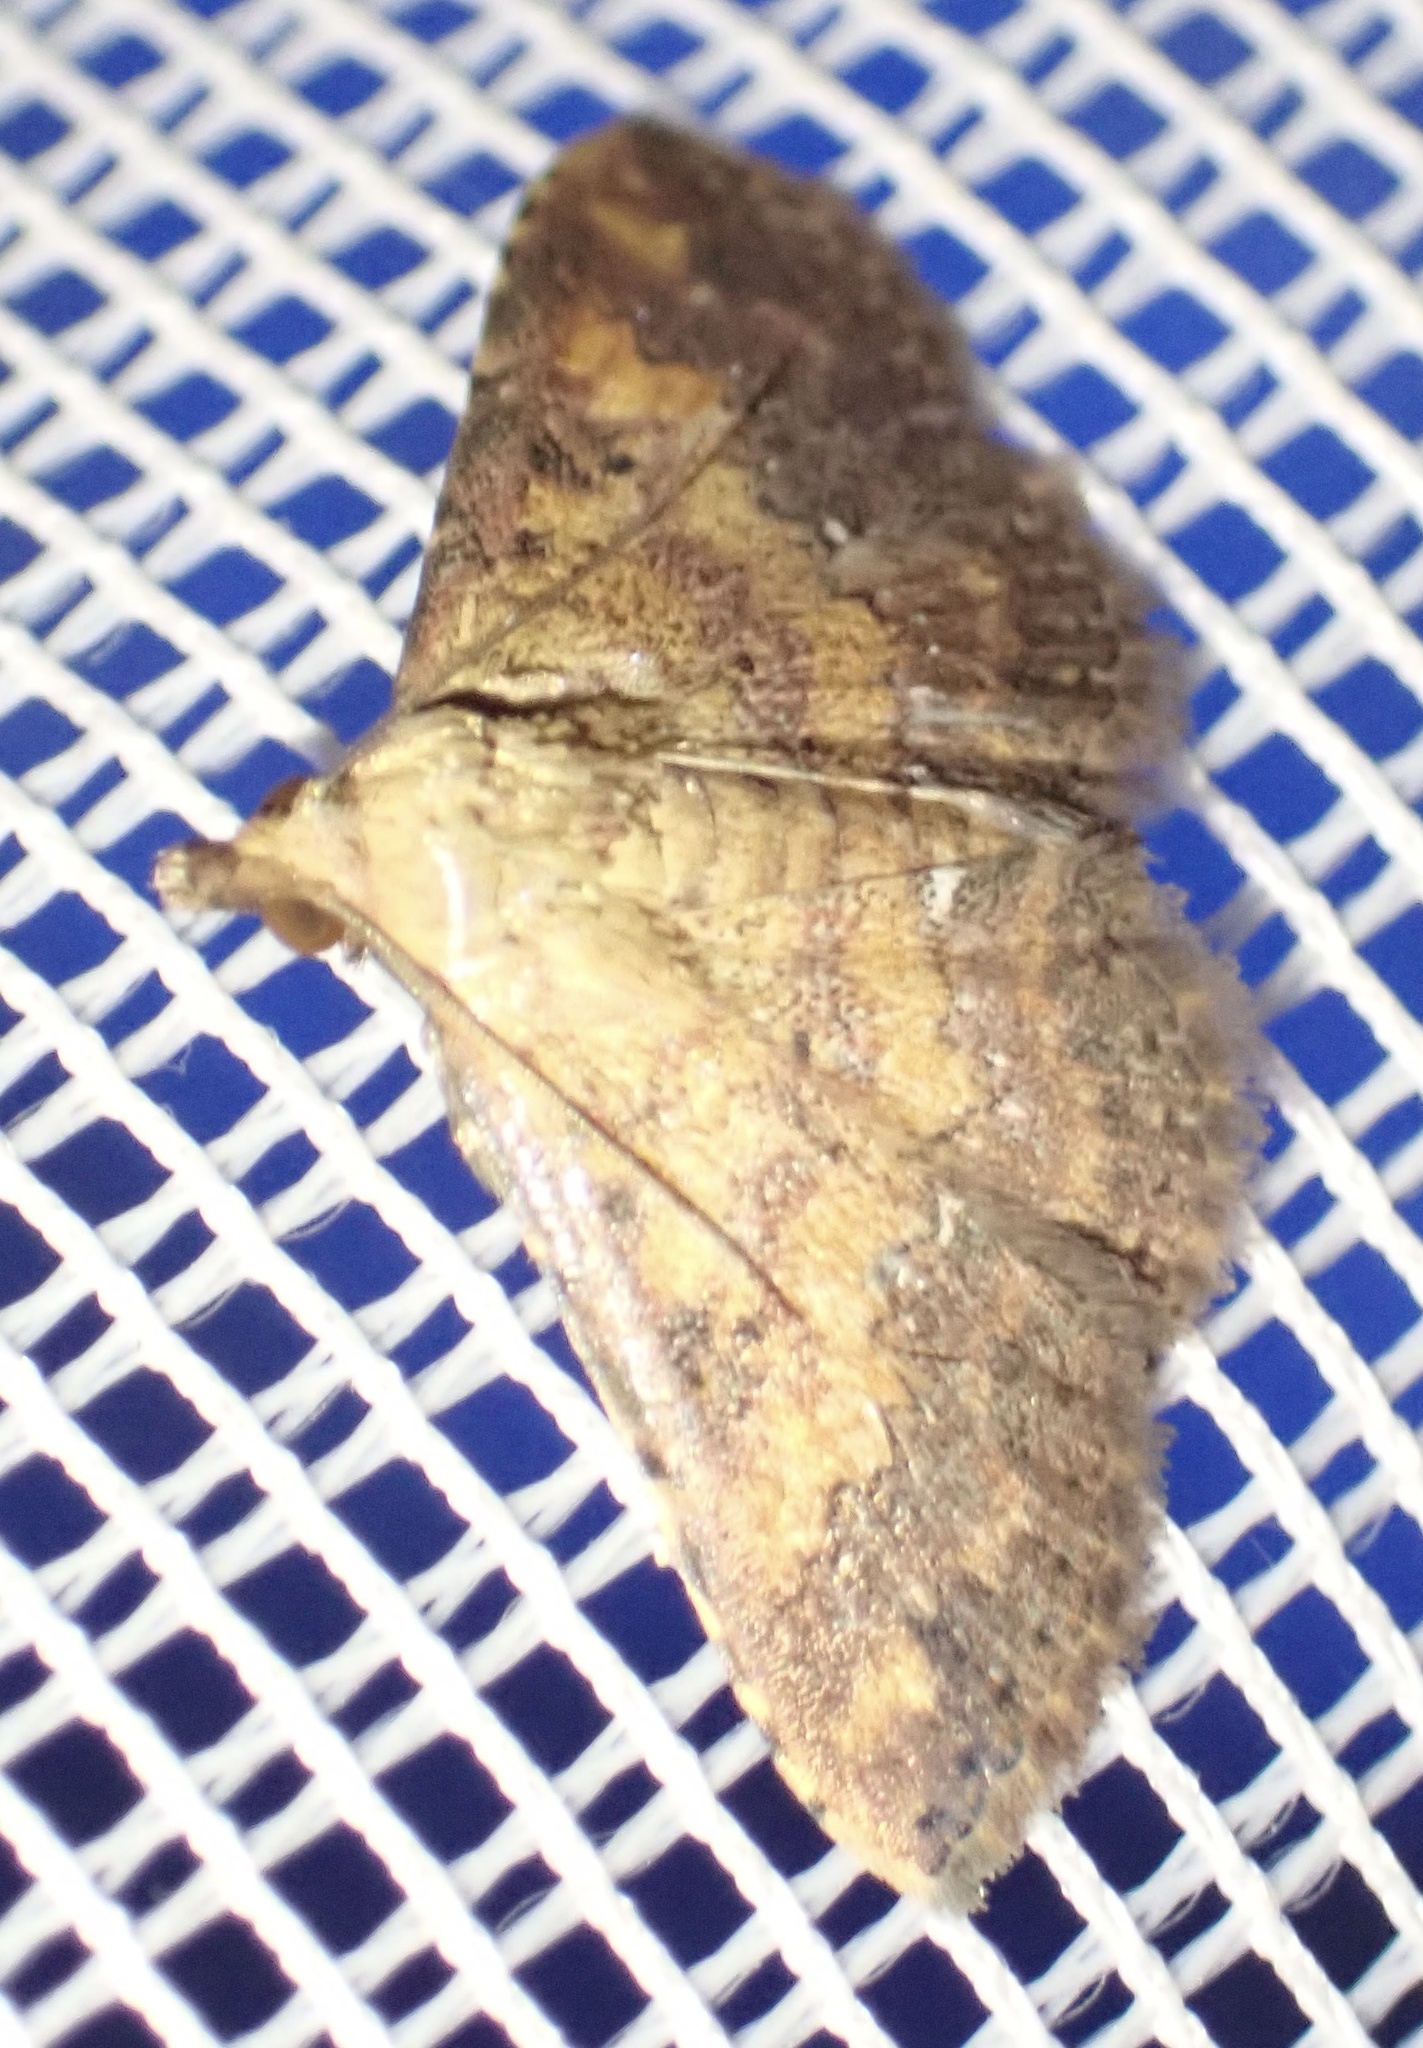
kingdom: Animalia
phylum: Arthropoda
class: Insecta
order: Lepidoptera
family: Noctuidae
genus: Cerynea
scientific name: Cerynea thermesialis
